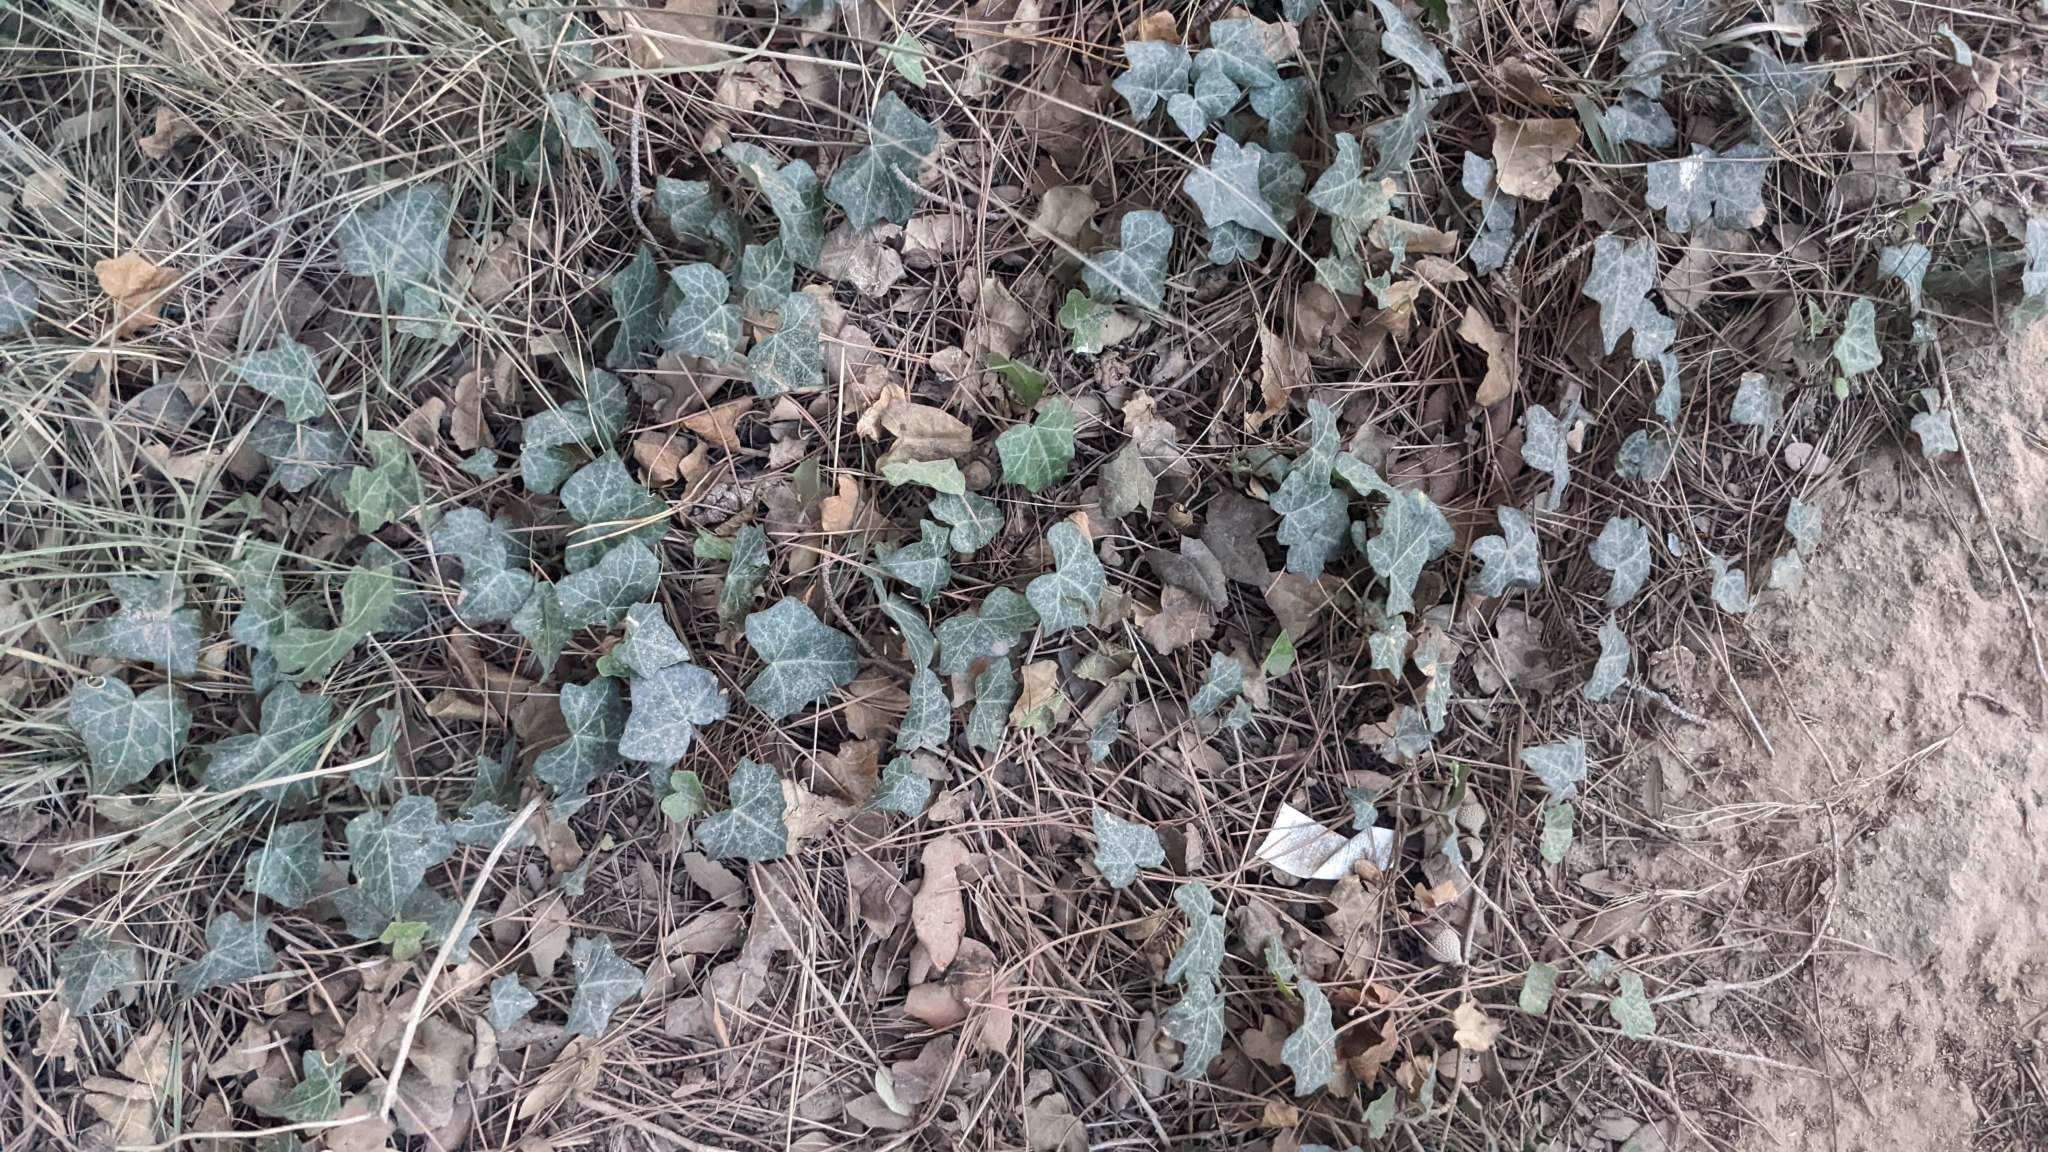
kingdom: Plantae
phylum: Tracheophyta
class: Magnoliopsida
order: Apiales
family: Araliaceae
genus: Hedera
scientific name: Hedera helix
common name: Ivy
